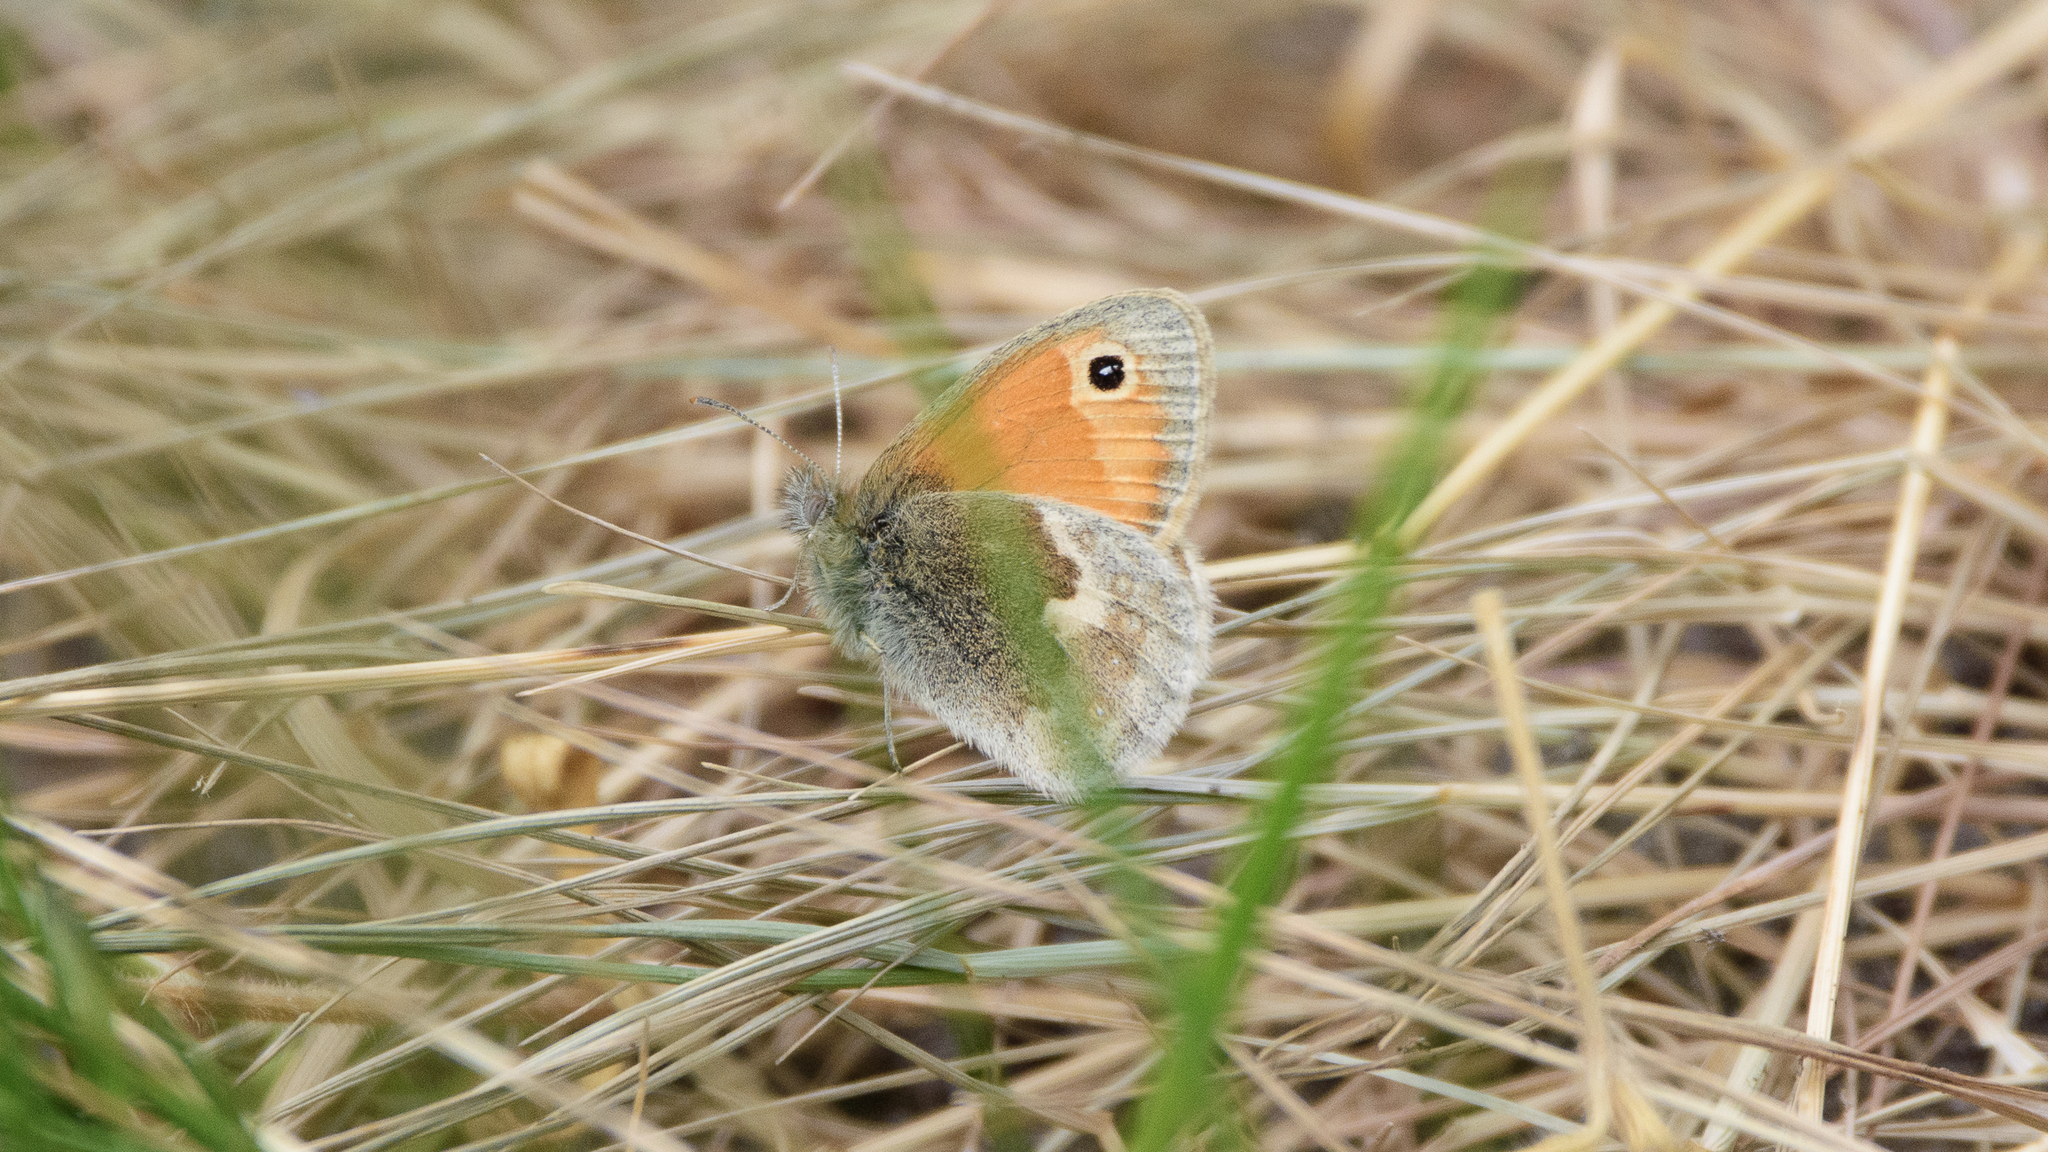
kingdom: Animalia
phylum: Arthropoda
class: Insecta
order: Lepidoptera
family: Nymphalidae
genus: Coenonympha
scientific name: Coenonympha pamphilus
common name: Small heath
